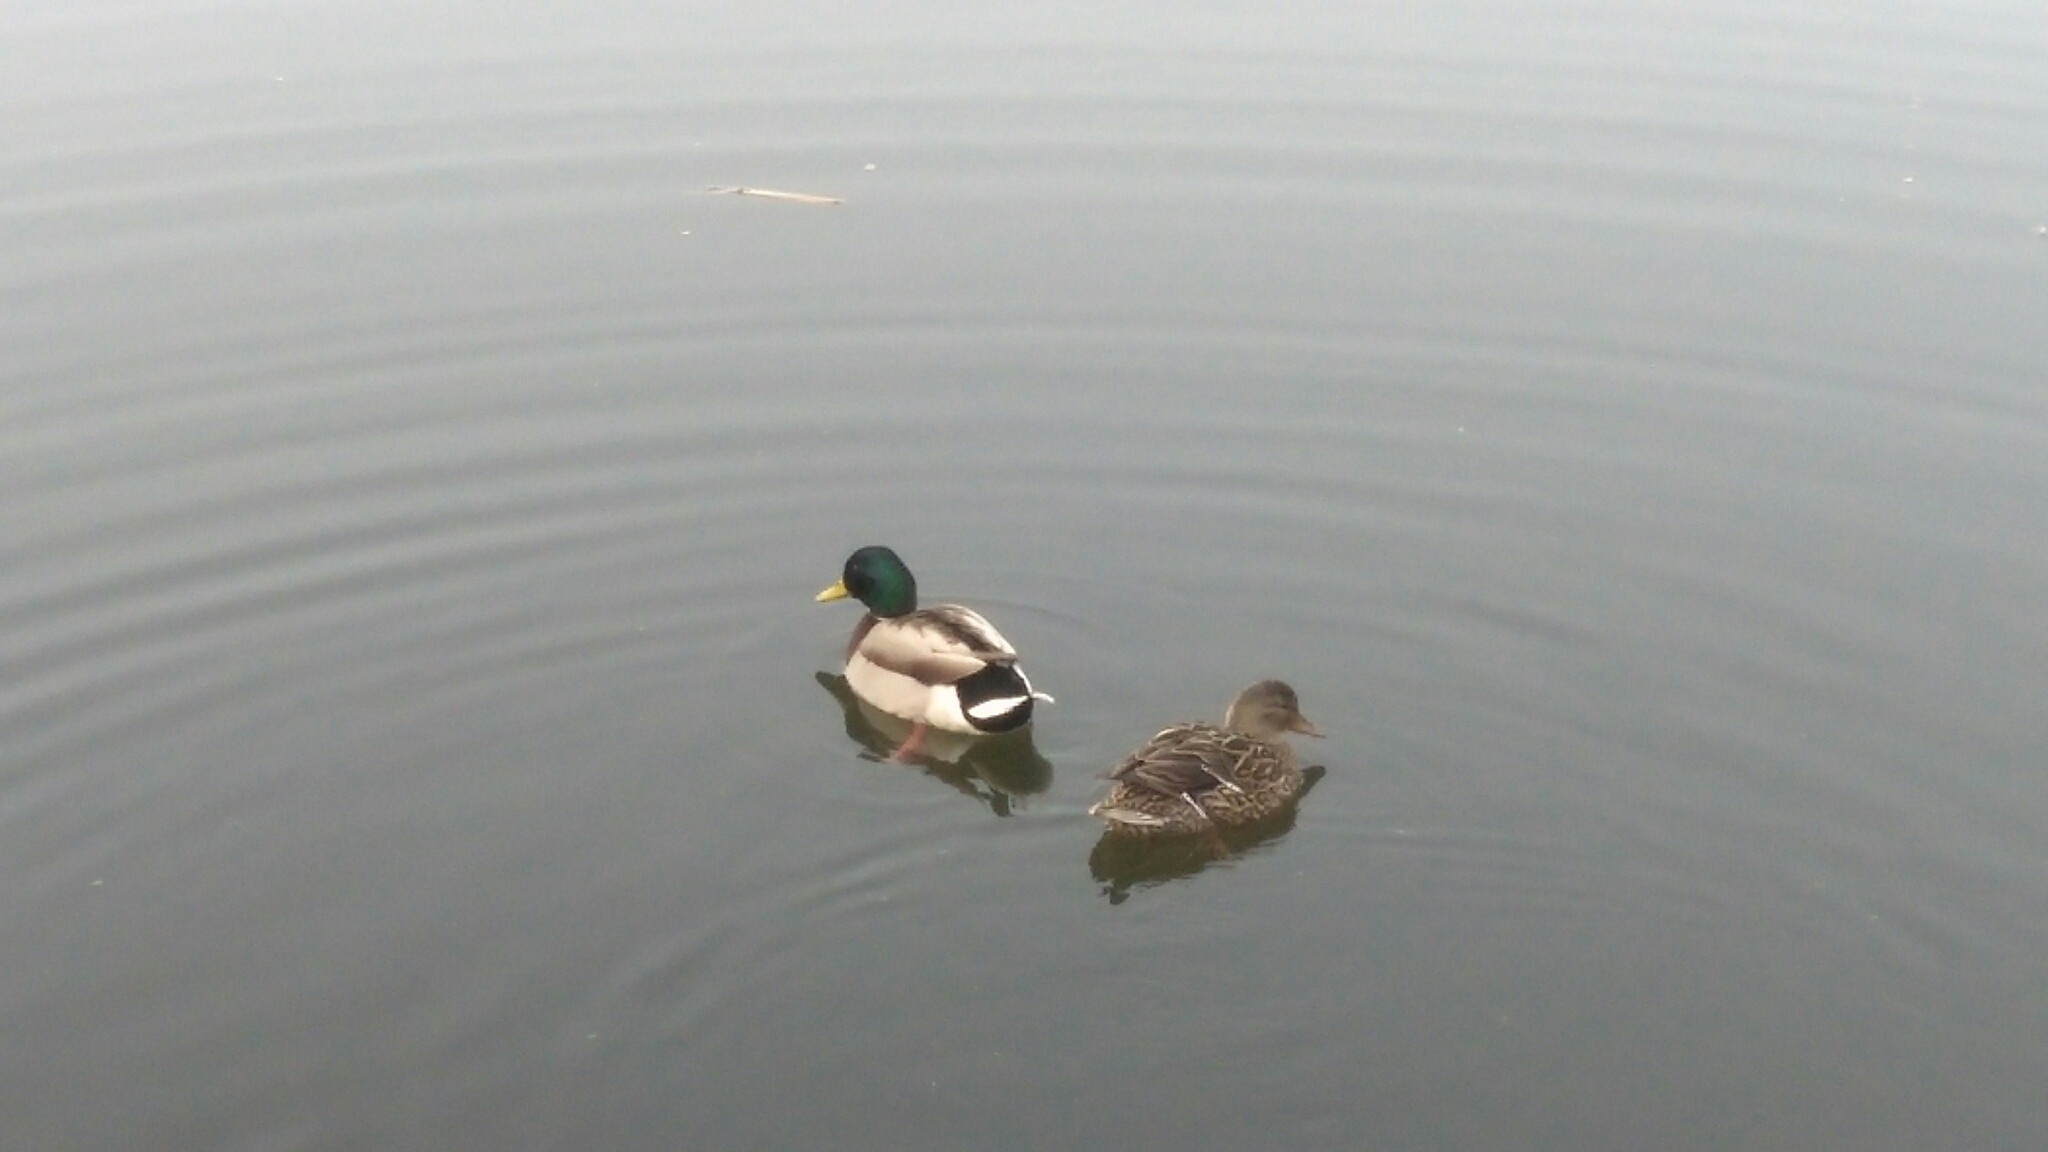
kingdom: Animalia
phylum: Chordata
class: Aves
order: Anseriformes
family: Anatidae
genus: Anas
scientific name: Anas platyrhynchos
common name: Mallard
